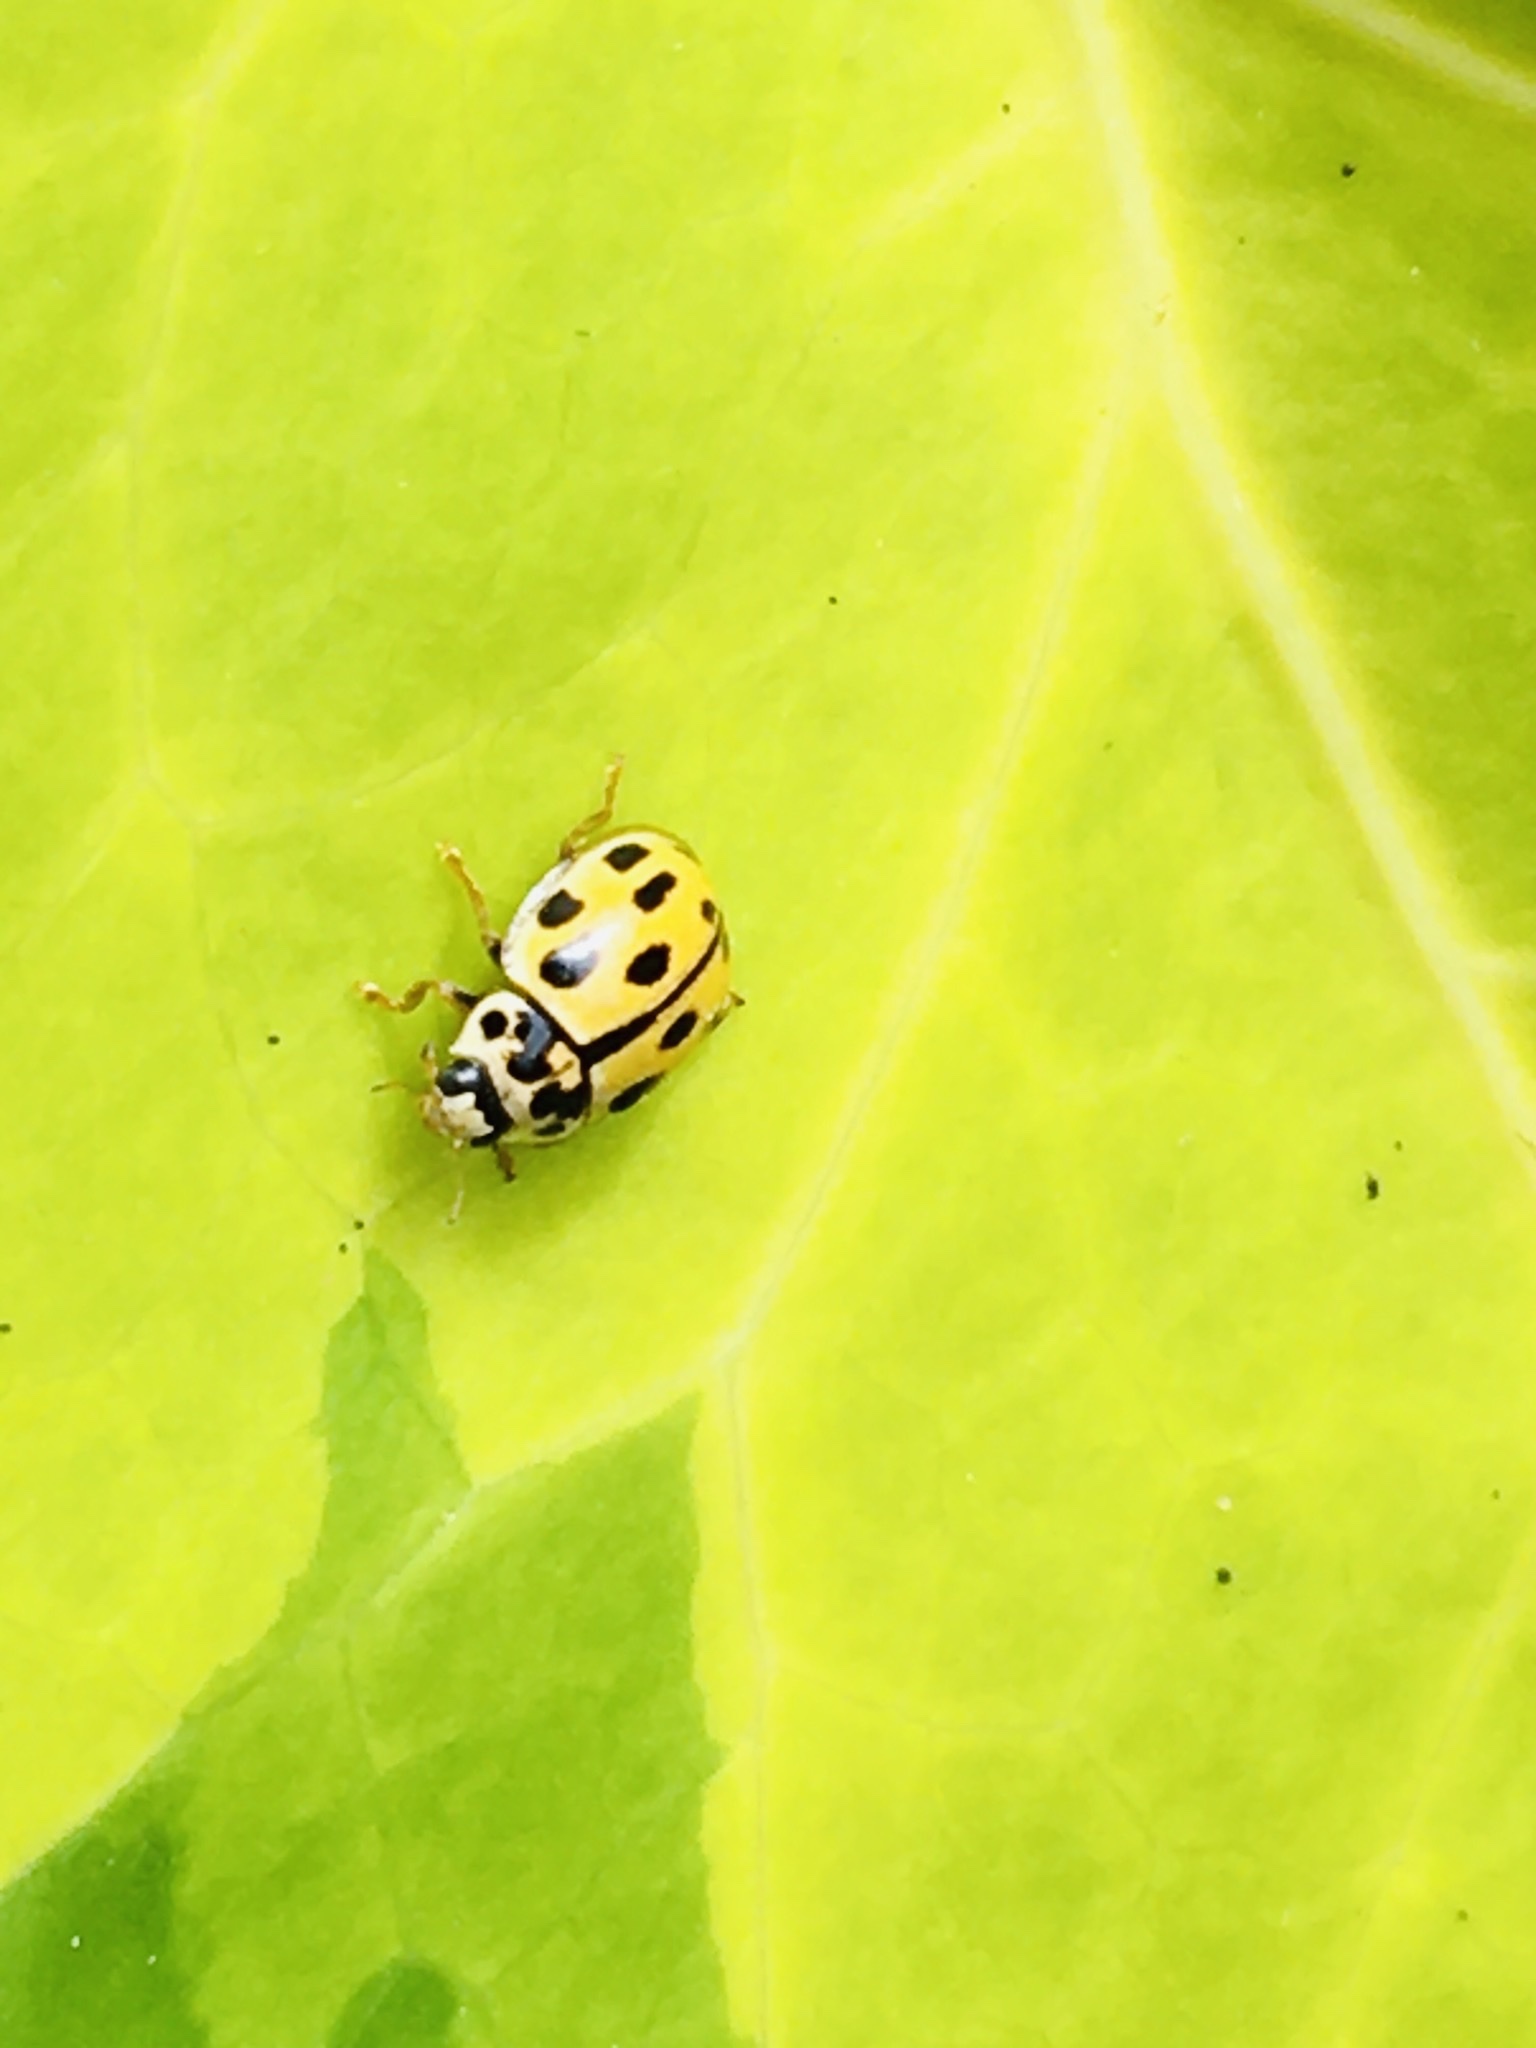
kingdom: Animalia
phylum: Arthropoda
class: Insecta
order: Coleoptera
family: Coccinellidae
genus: Propylaea
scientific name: Propylaea quatuordecimpunctata
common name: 14-spotted ladybird beetle
